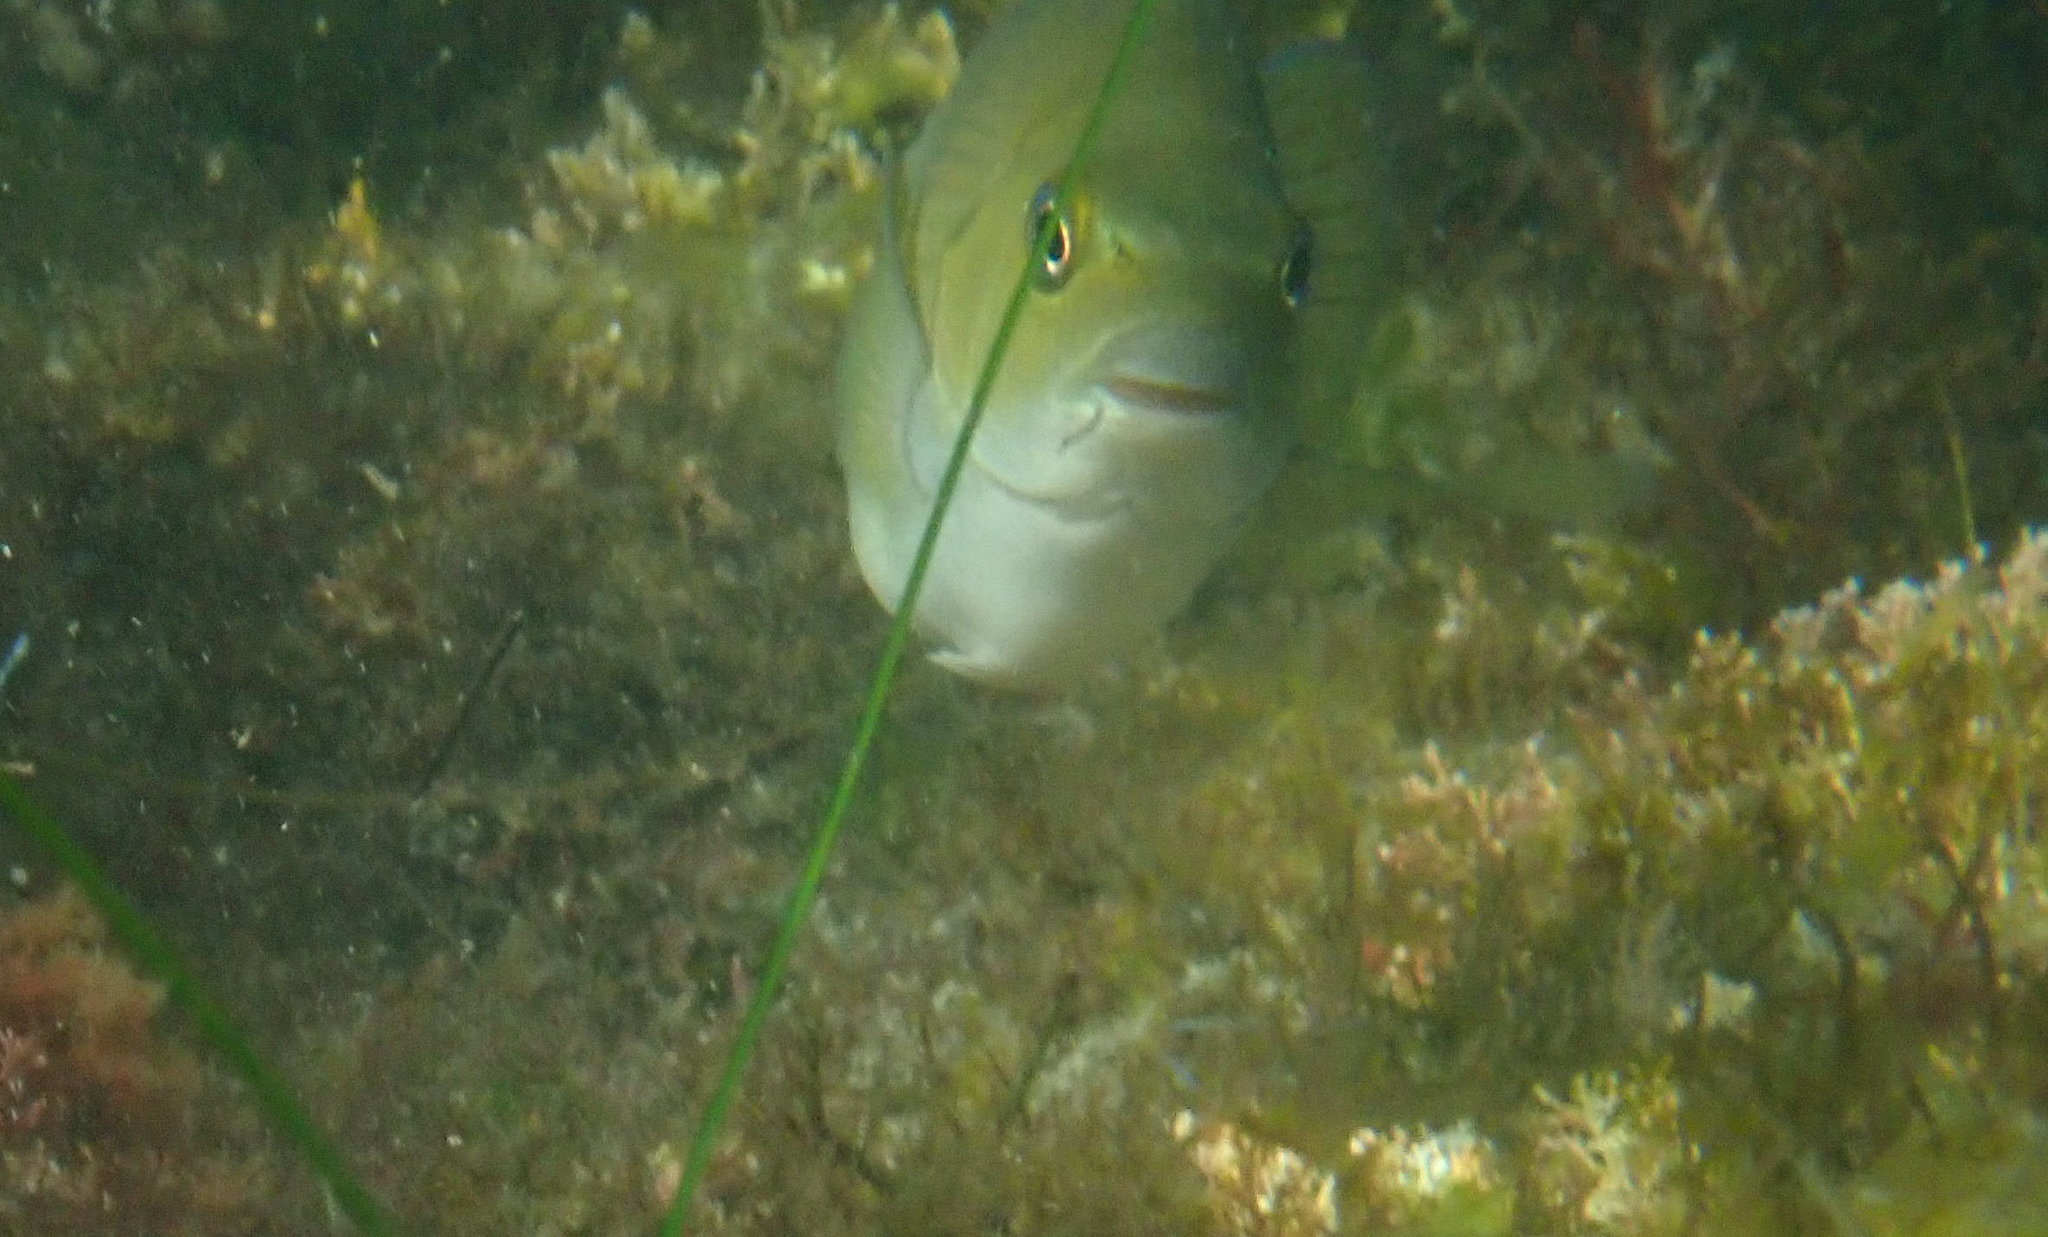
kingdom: Animalia
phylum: Chordata
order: Perciformes
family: Kyphosidae
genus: Girella
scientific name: Girella nigricans
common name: Opaleye
